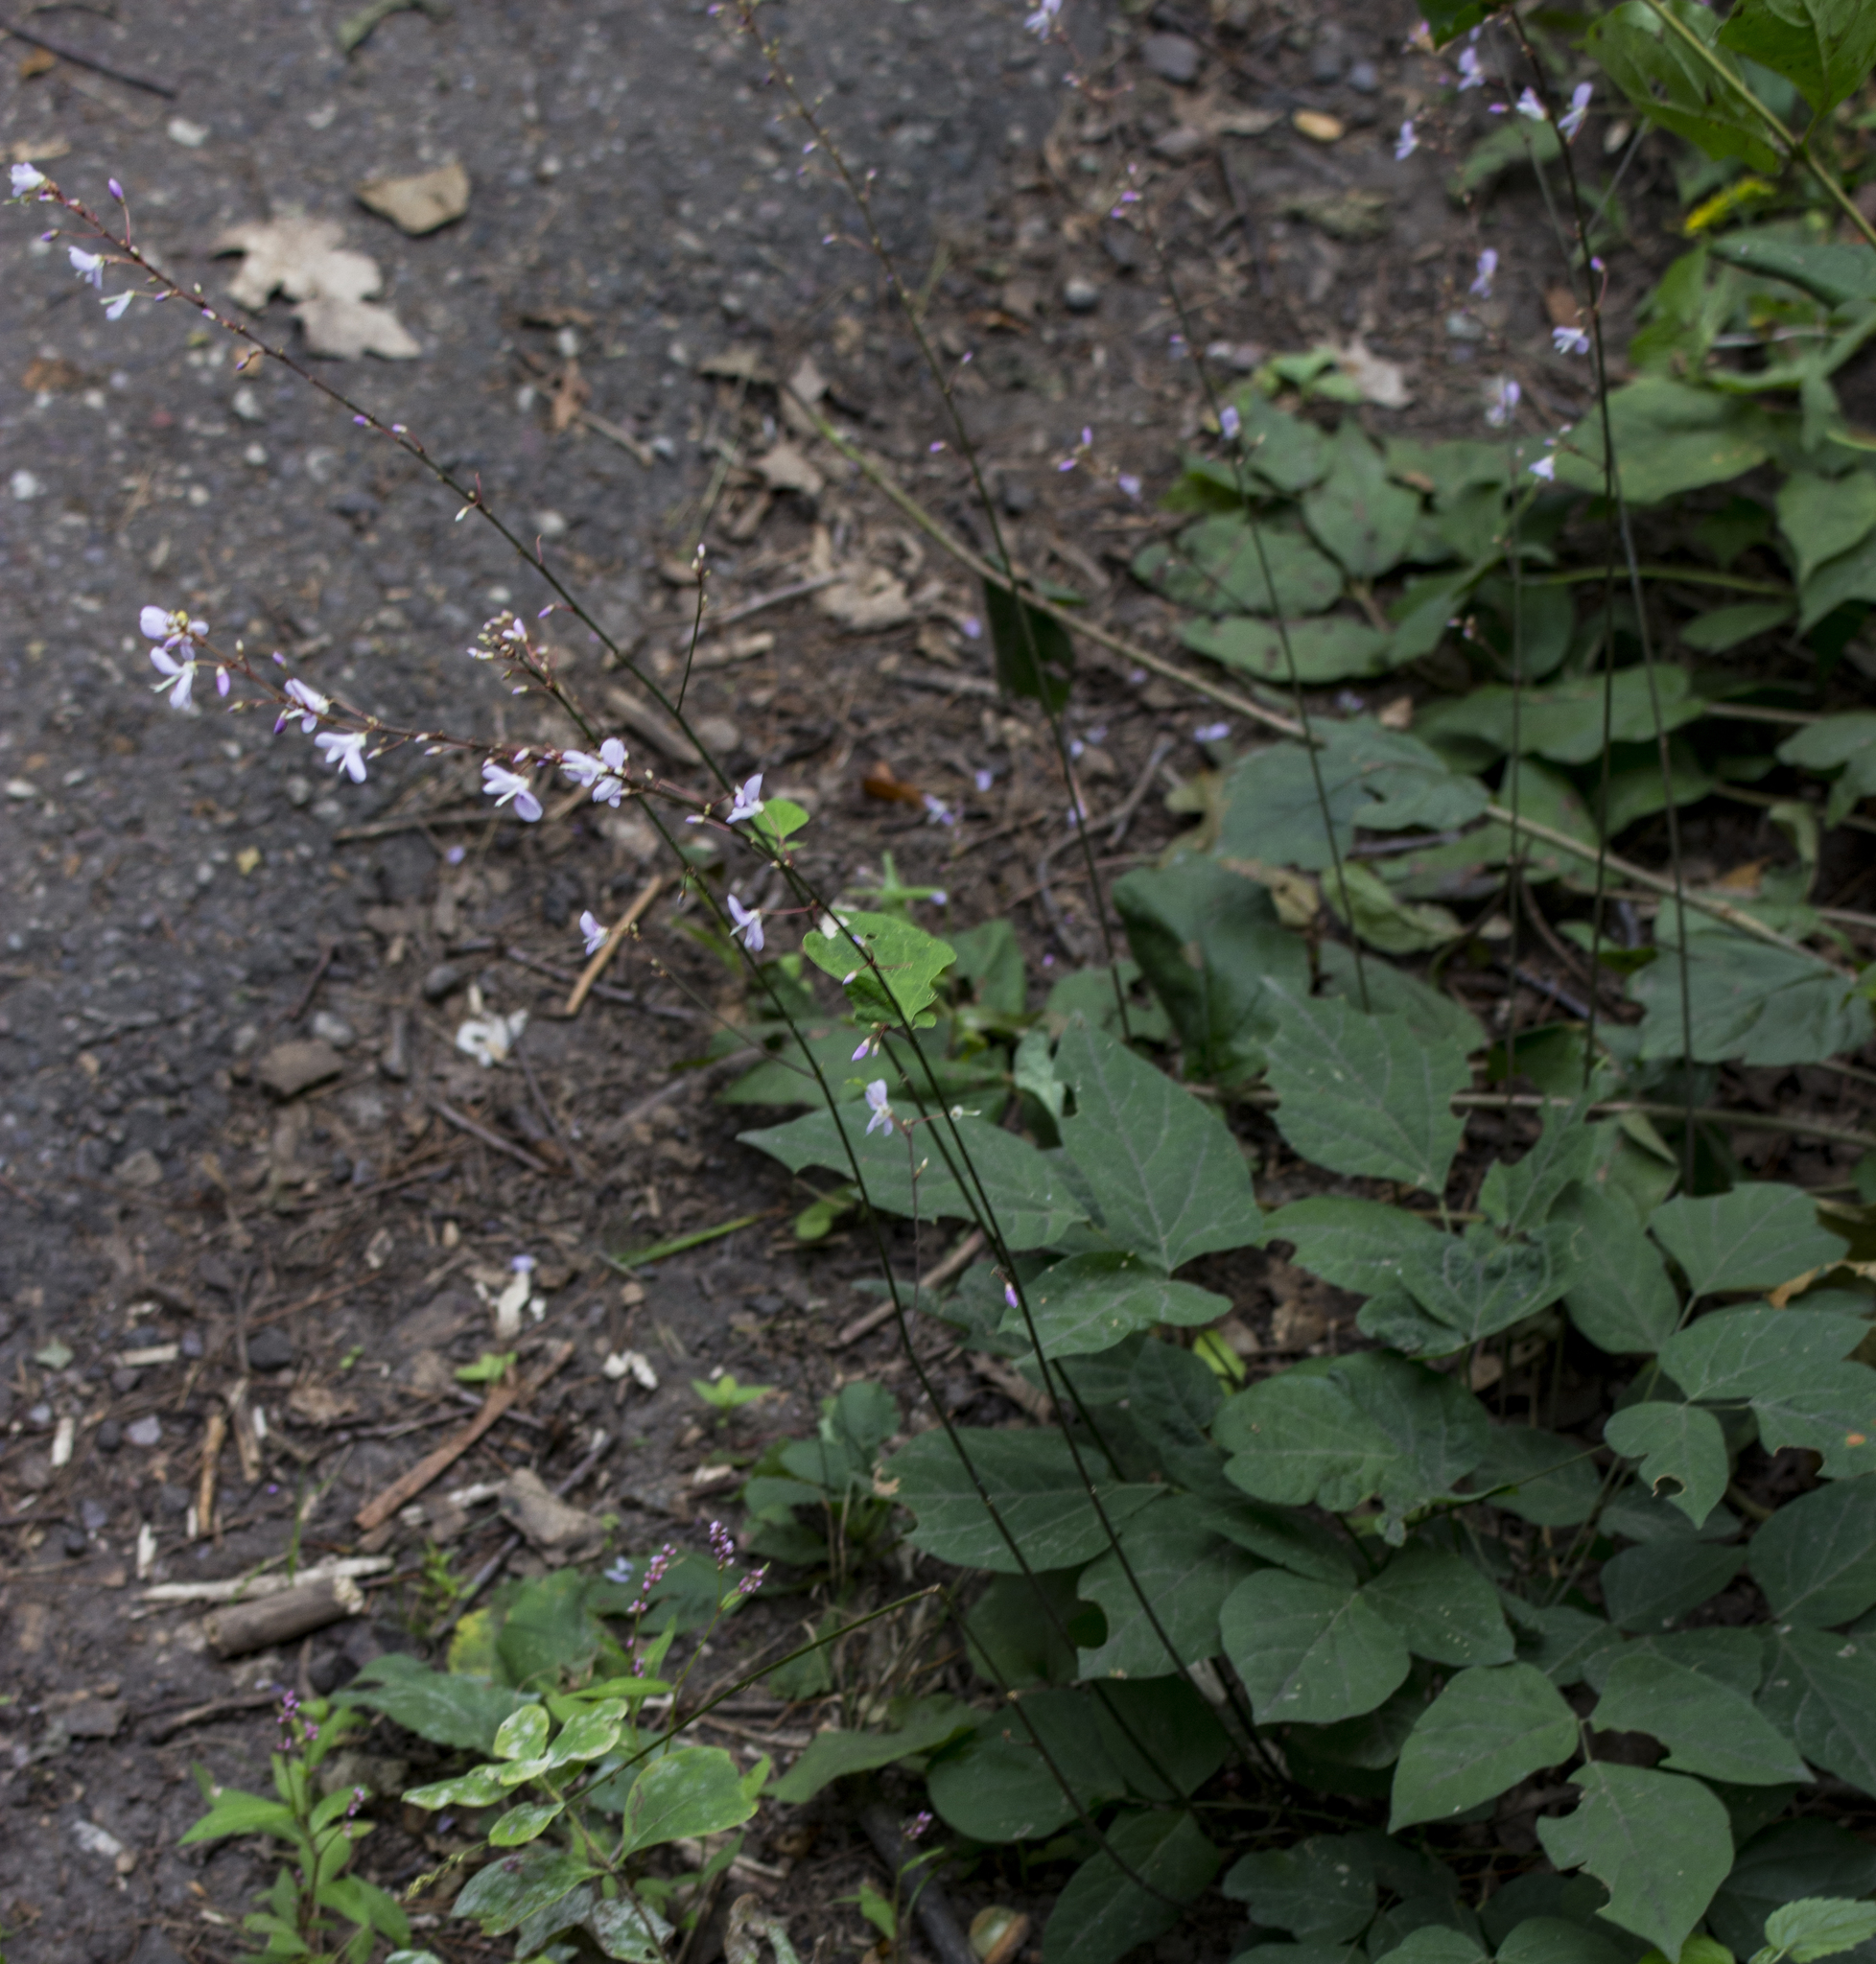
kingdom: Plantae
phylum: Tracheophyta
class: Magnoliopsida
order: Fabales
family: Fabaceae
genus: Hylodesmum
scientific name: Hylodesmum nudiflorum
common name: Bare-stemmed tick-trefoil
